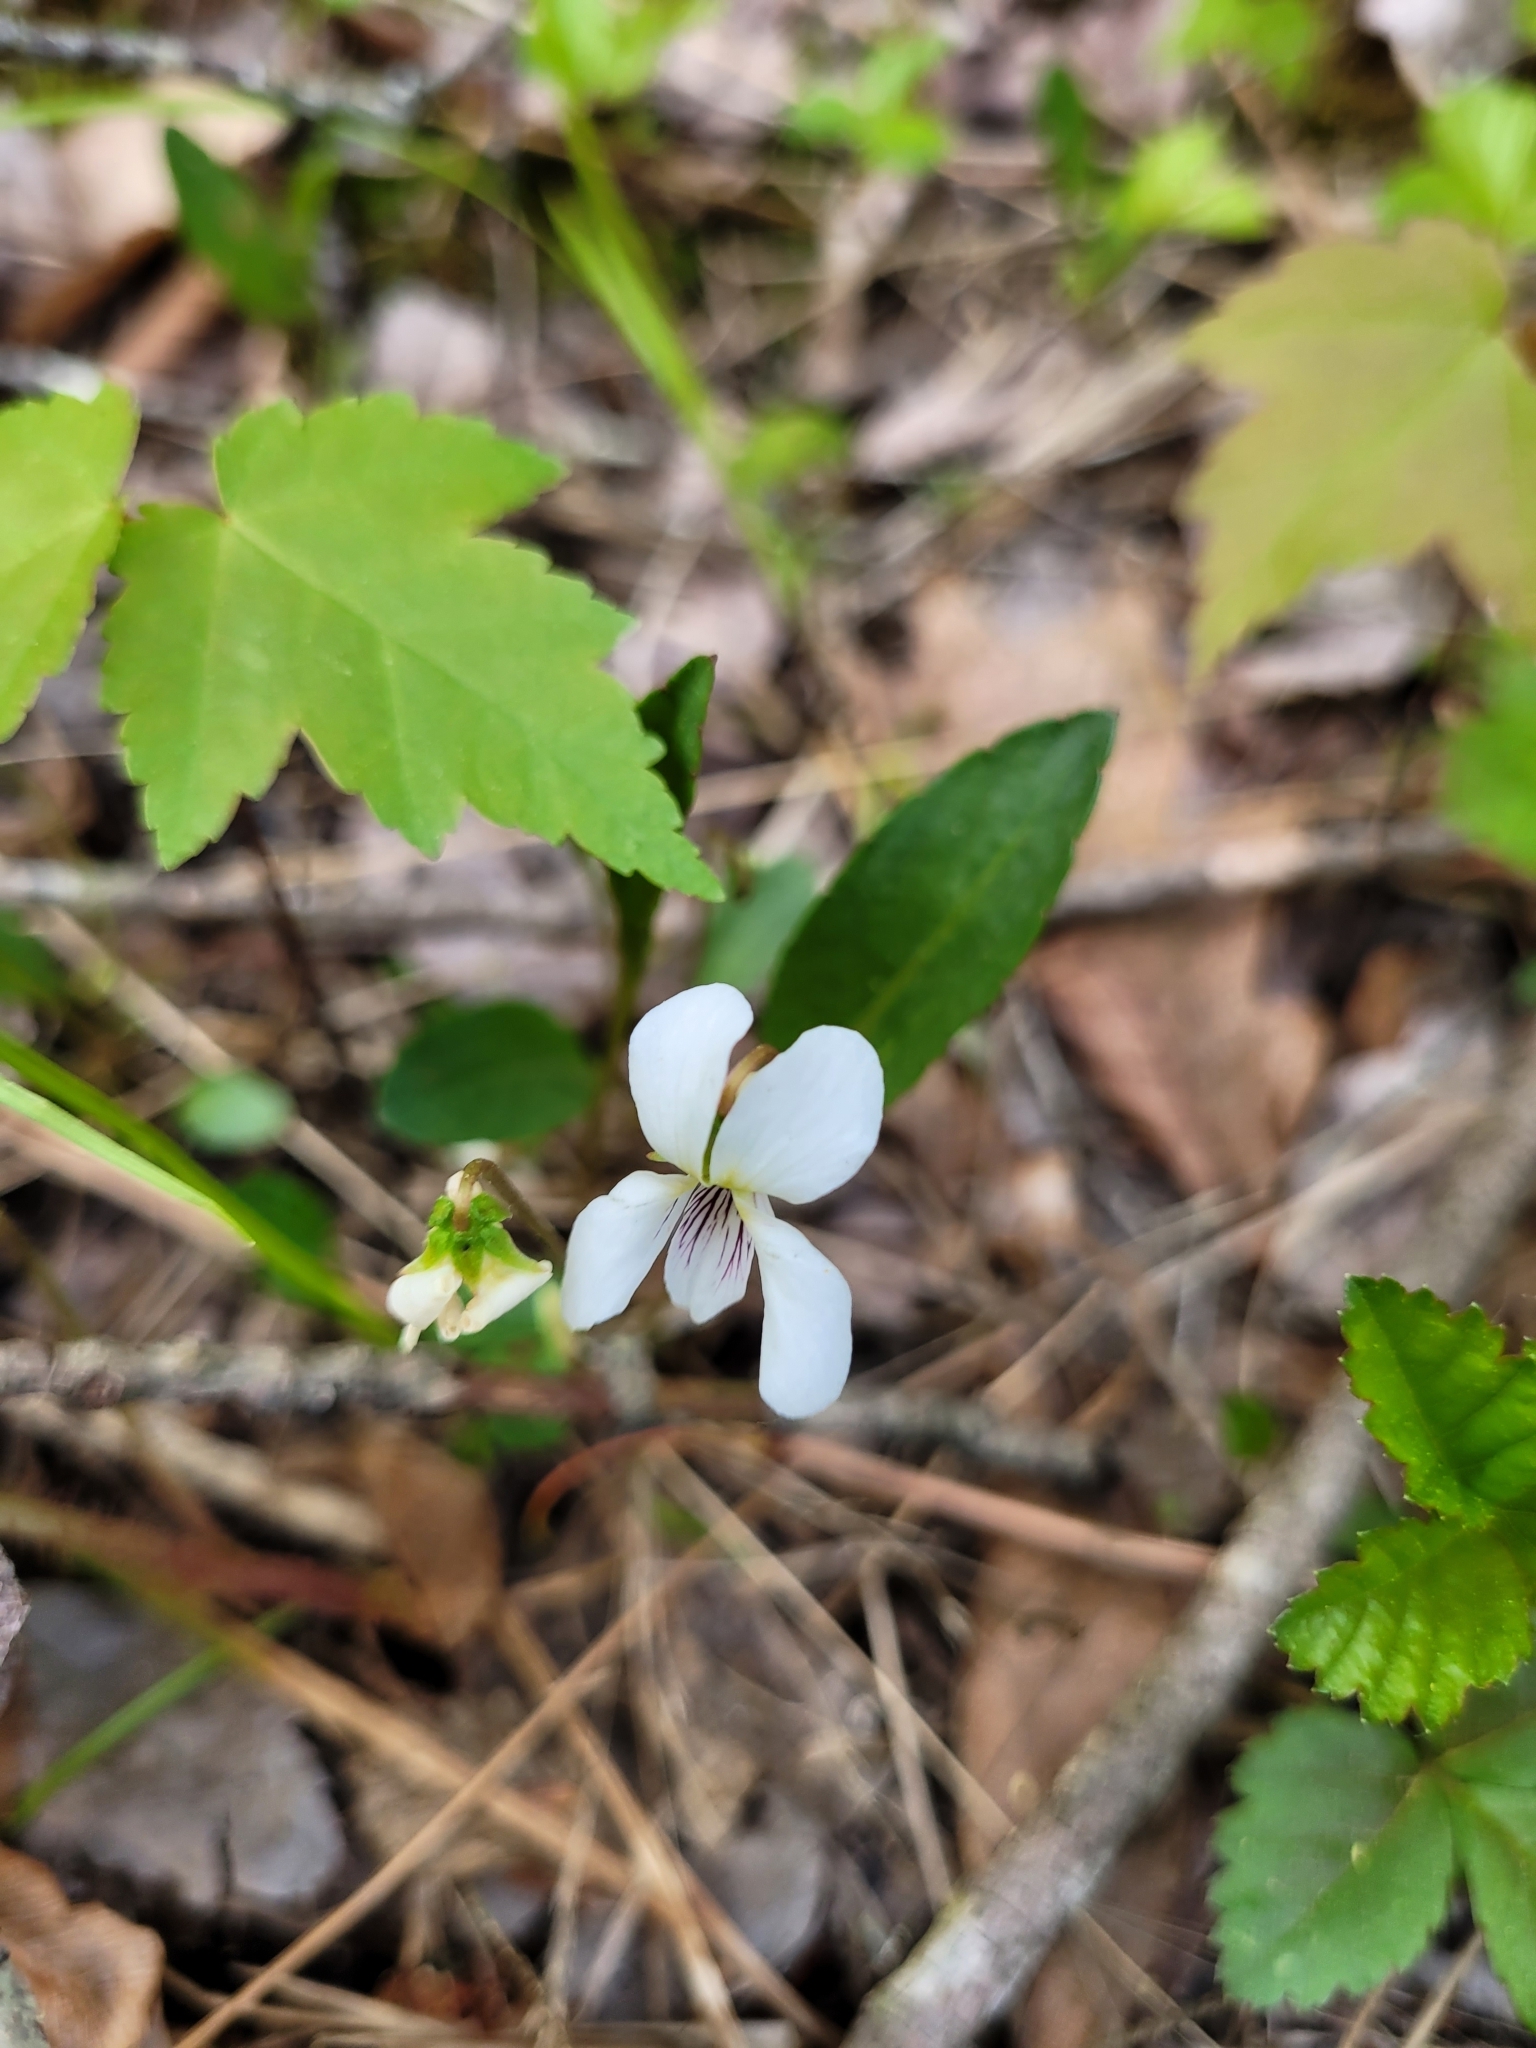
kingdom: Plantae
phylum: Tracheophyta
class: Magnoliopsida
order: Malpighiales
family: Violaceae
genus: Viola
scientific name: Viola lanceolata
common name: Bog white violet
